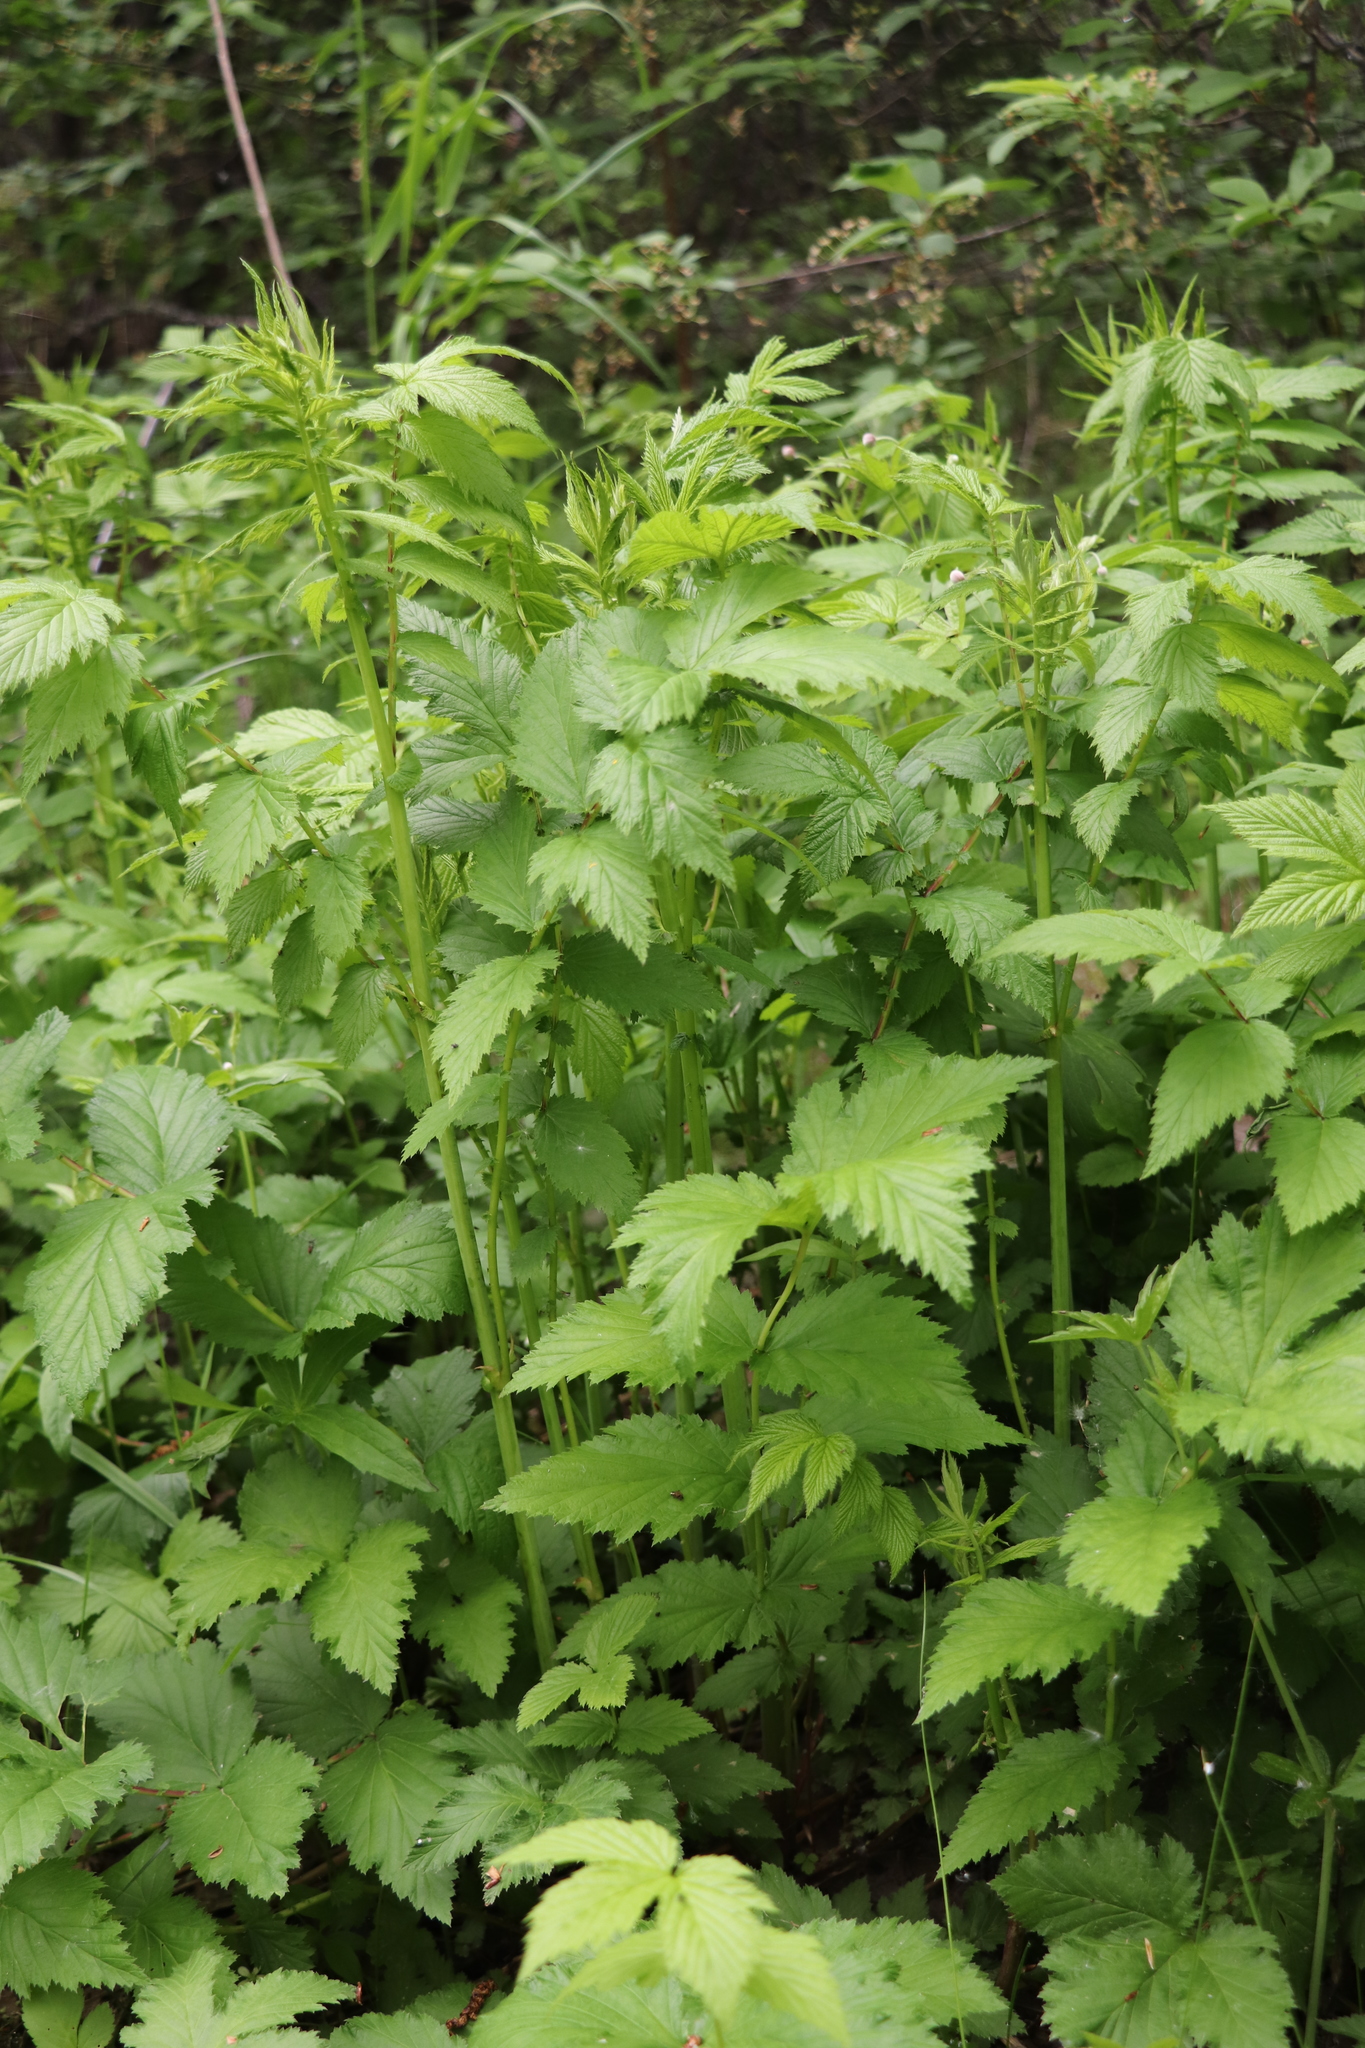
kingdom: Plantae
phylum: Tracheophyta
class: Magnoliopsida
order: Rosales
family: Rosaceae
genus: Filipendula
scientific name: Filipendula ulmaria
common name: Meadowsweet
